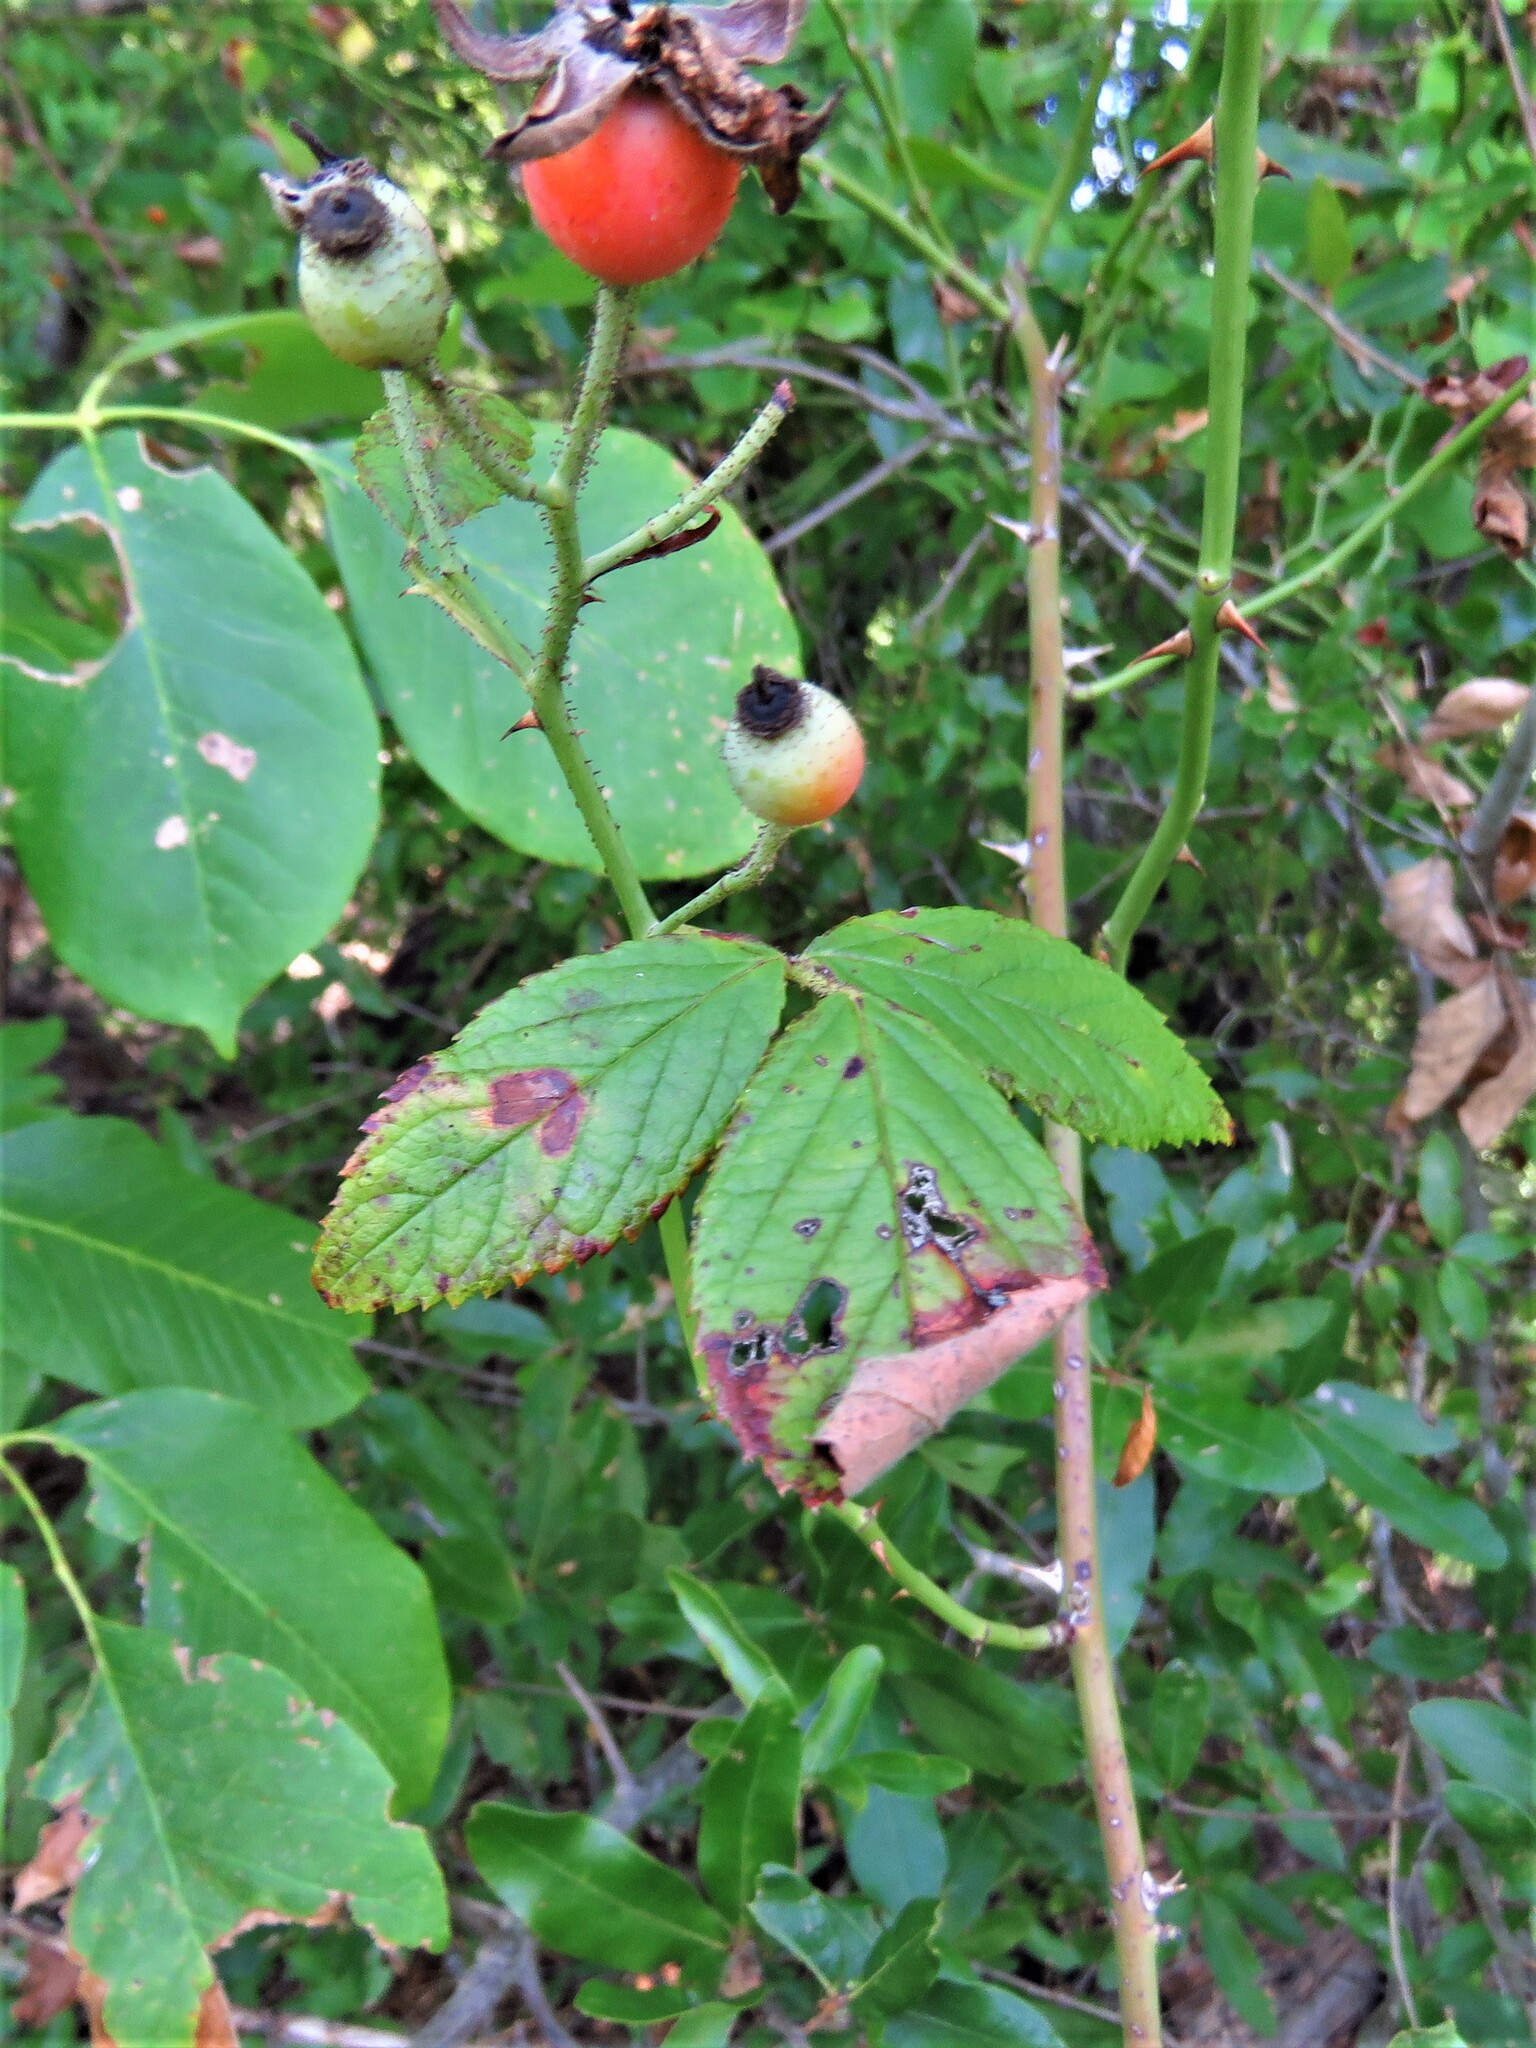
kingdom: Plantae
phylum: Tracheophyta
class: Magnoliopsida
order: Rosales
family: Rosaceae
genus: Rosa
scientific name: Rosa setigera
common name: Prairie rose
